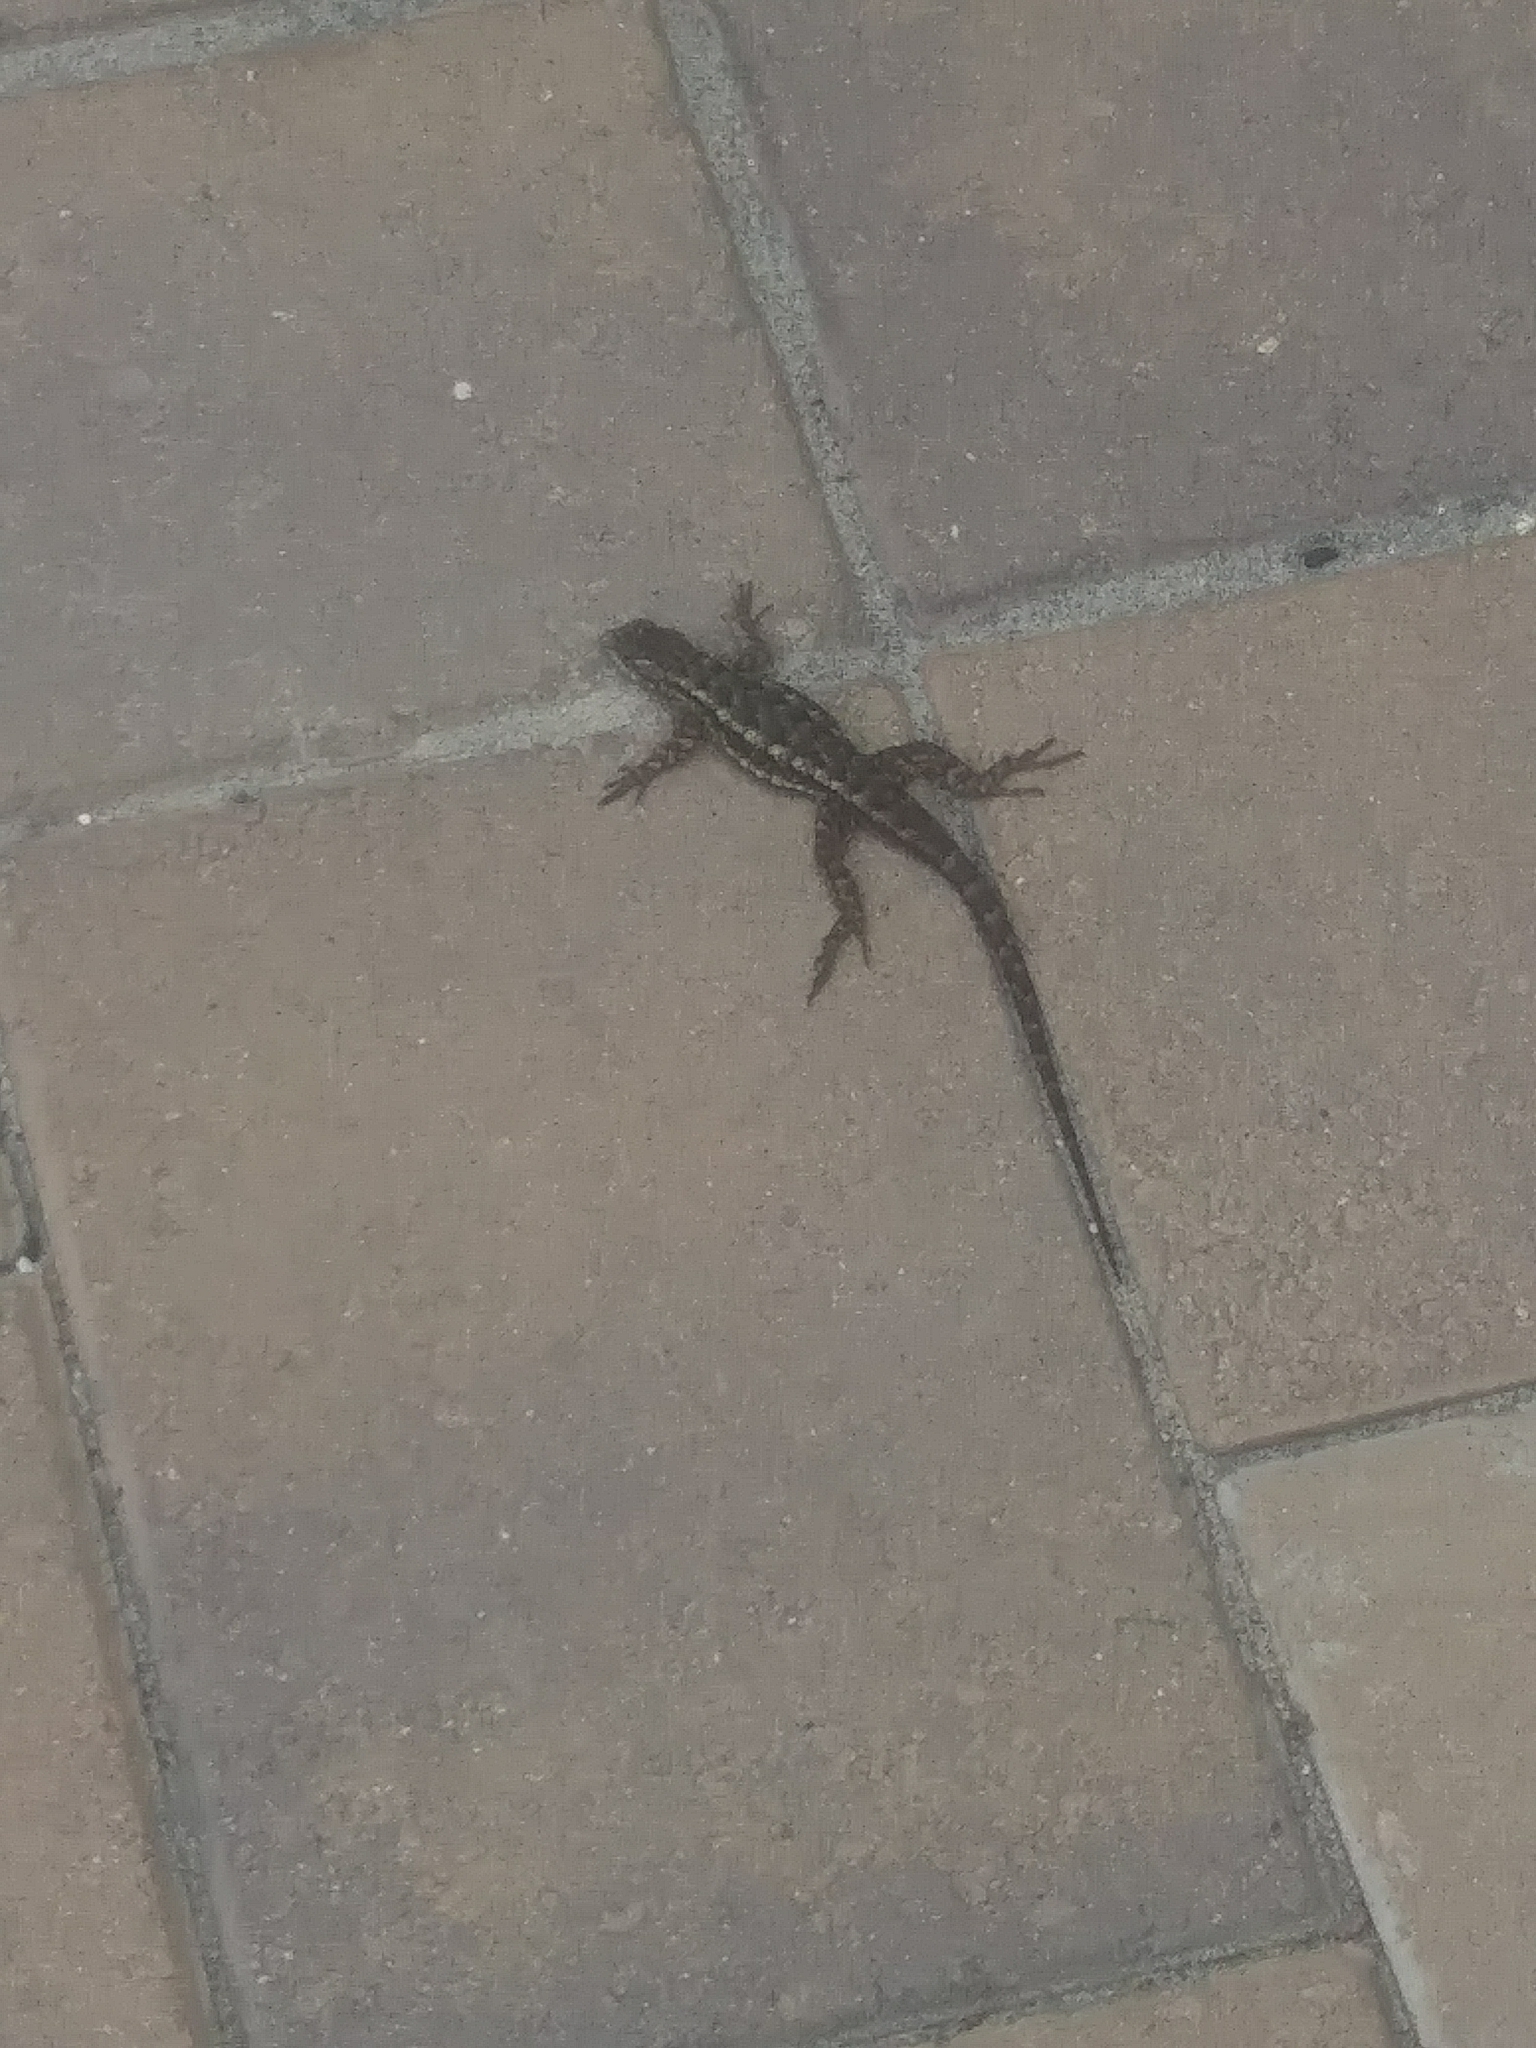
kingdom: Animalia
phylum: Chordata
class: Squamata
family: Phrynosomatidae
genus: Sceloporus
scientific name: Sceloporus occidentalis
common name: Western fence lizard
